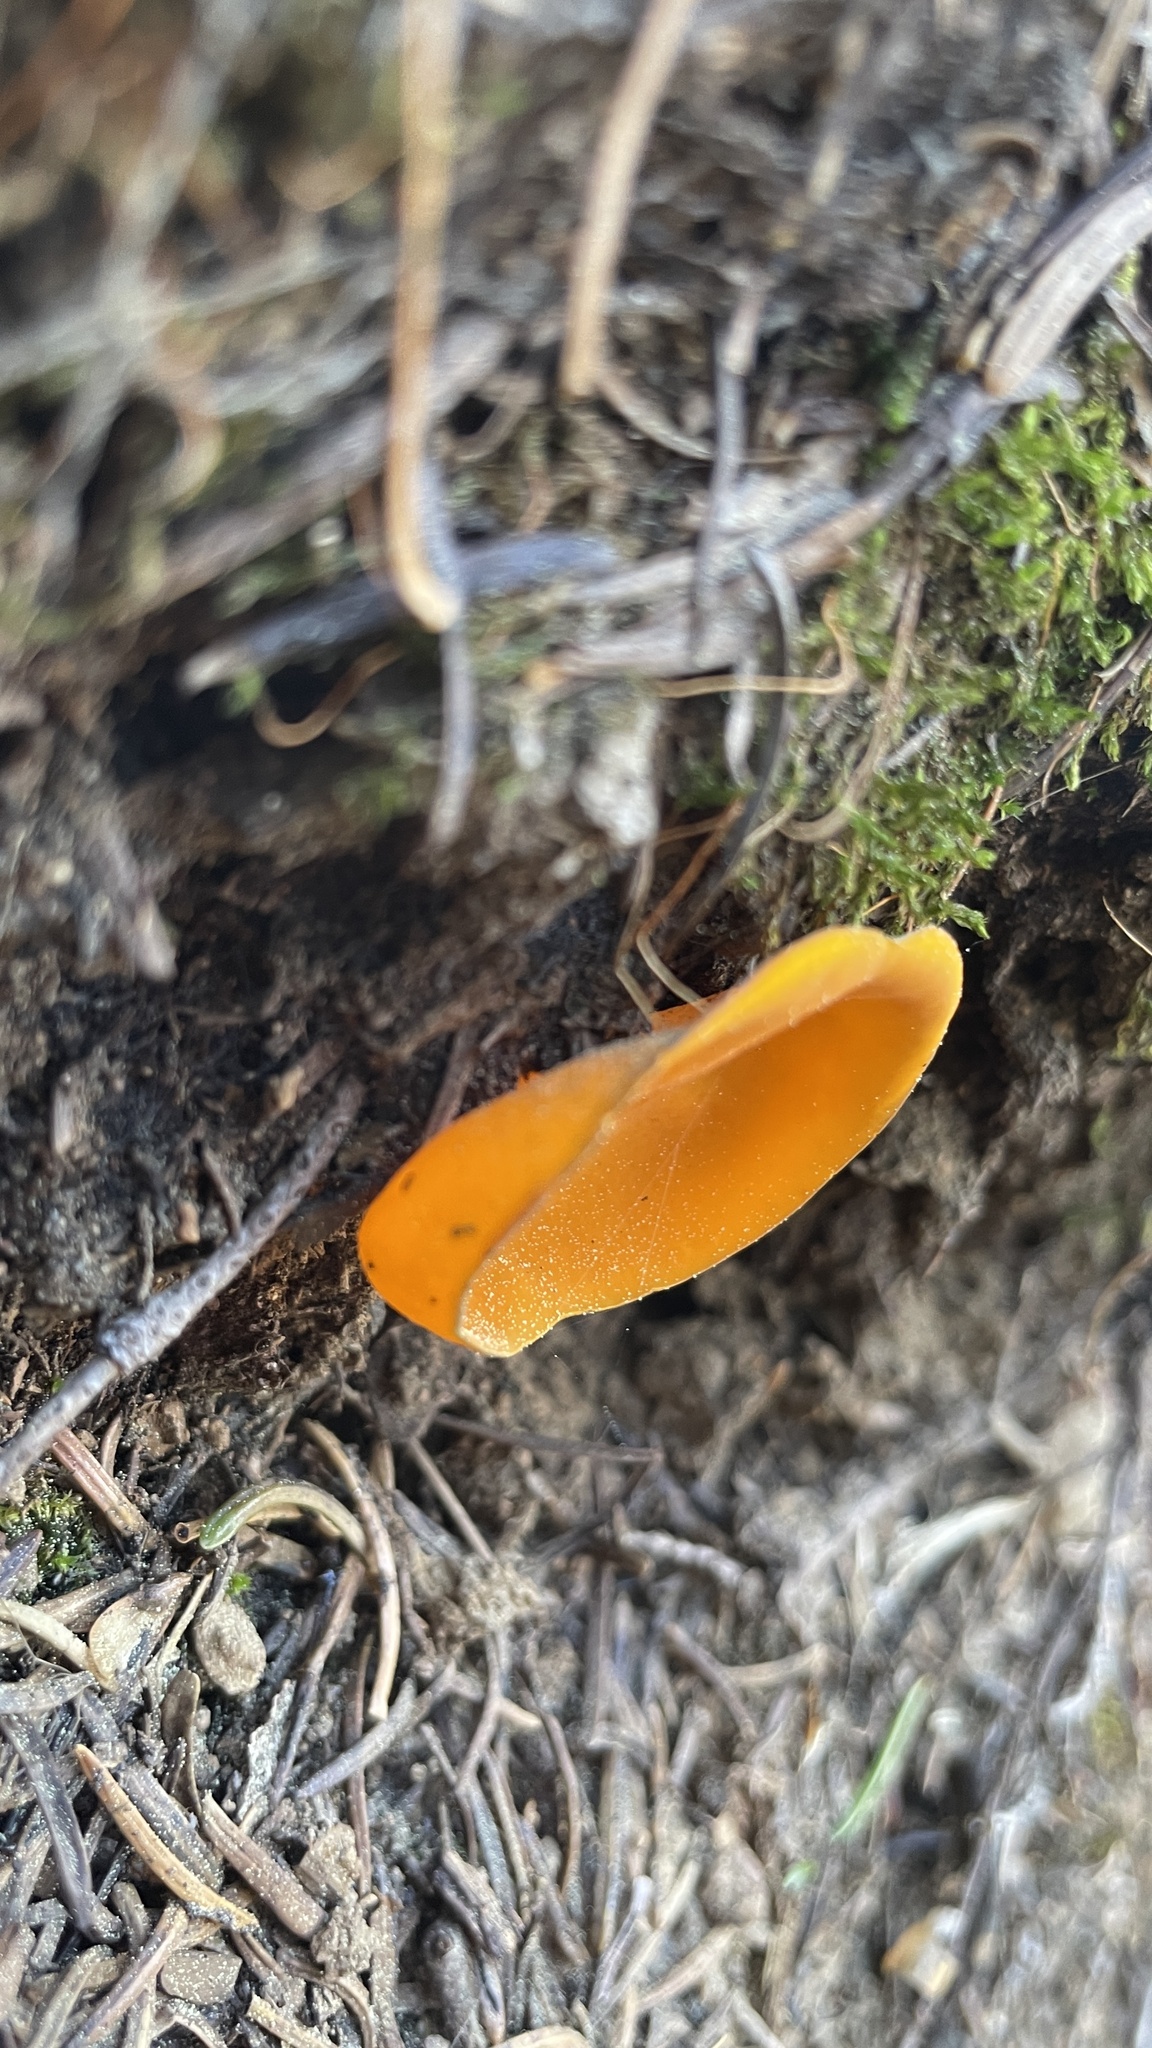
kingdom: Fungi
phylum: Ascomycota
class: Pezizomycetes
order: Pezizales
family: Caloscyphaceae
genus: Caloscypha
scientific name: Caloscypha fulgens
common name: Golden cup
